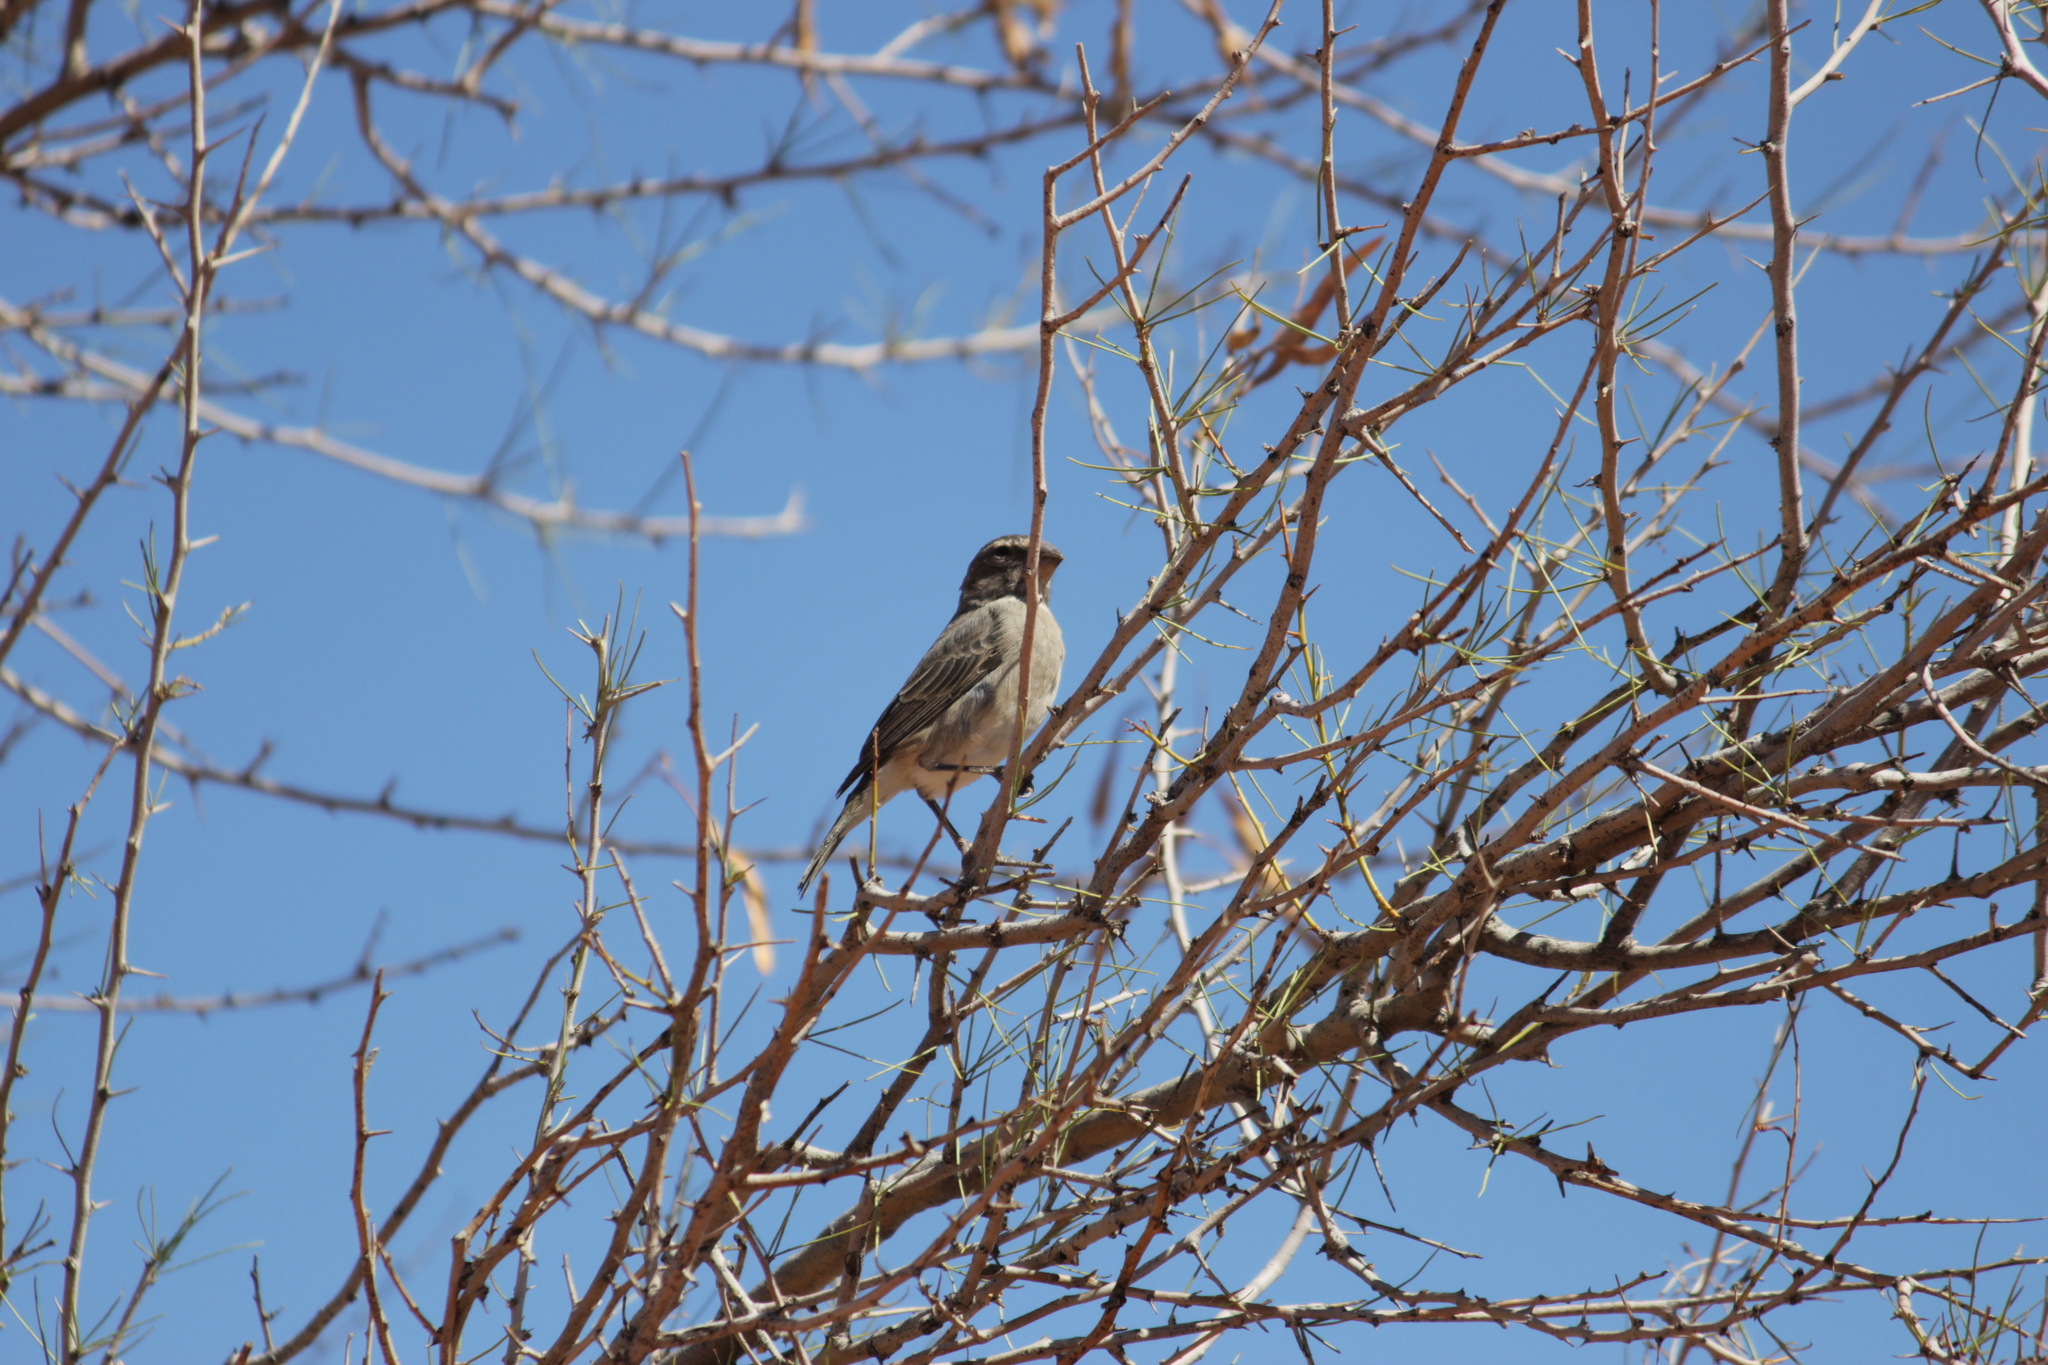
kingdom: Animalia
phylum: Chordata
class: Aves
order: Passeriformes
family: Fringillidae
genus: Crithagra
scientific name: Crithagra albogularis
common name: White-throated canary
